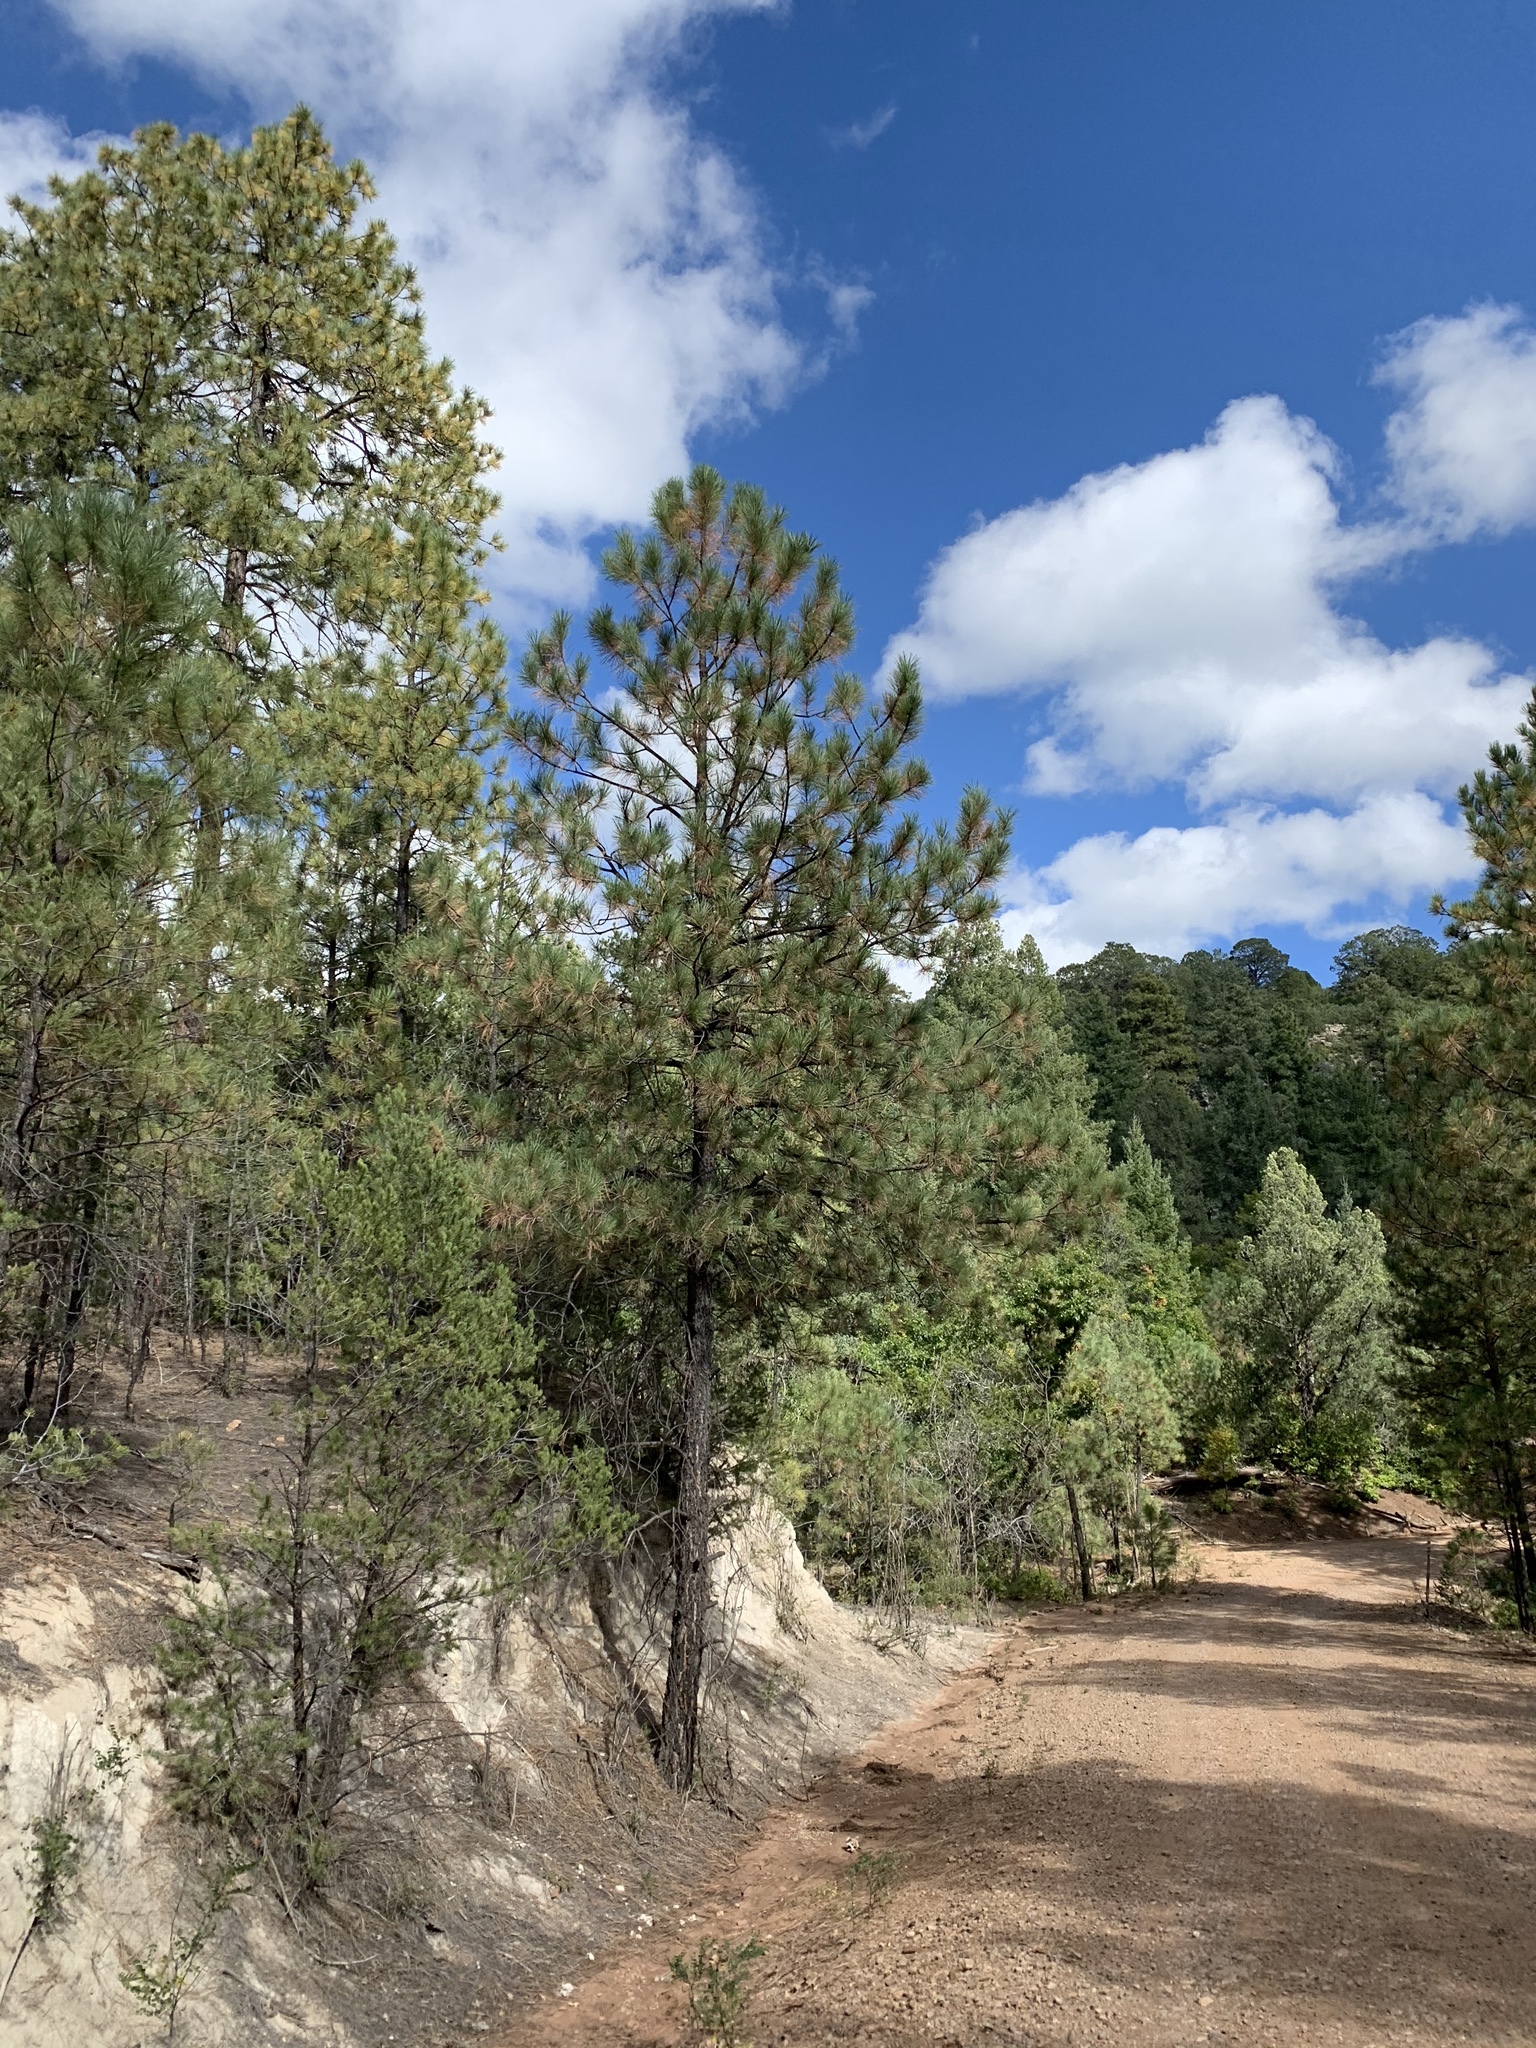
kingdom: Plantae
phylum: Tracheophyta
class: Pinopsida
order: Pinales
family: Pinaceae
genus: Pinus
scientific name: Pinus ponderosa
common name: Western yellow-pine
